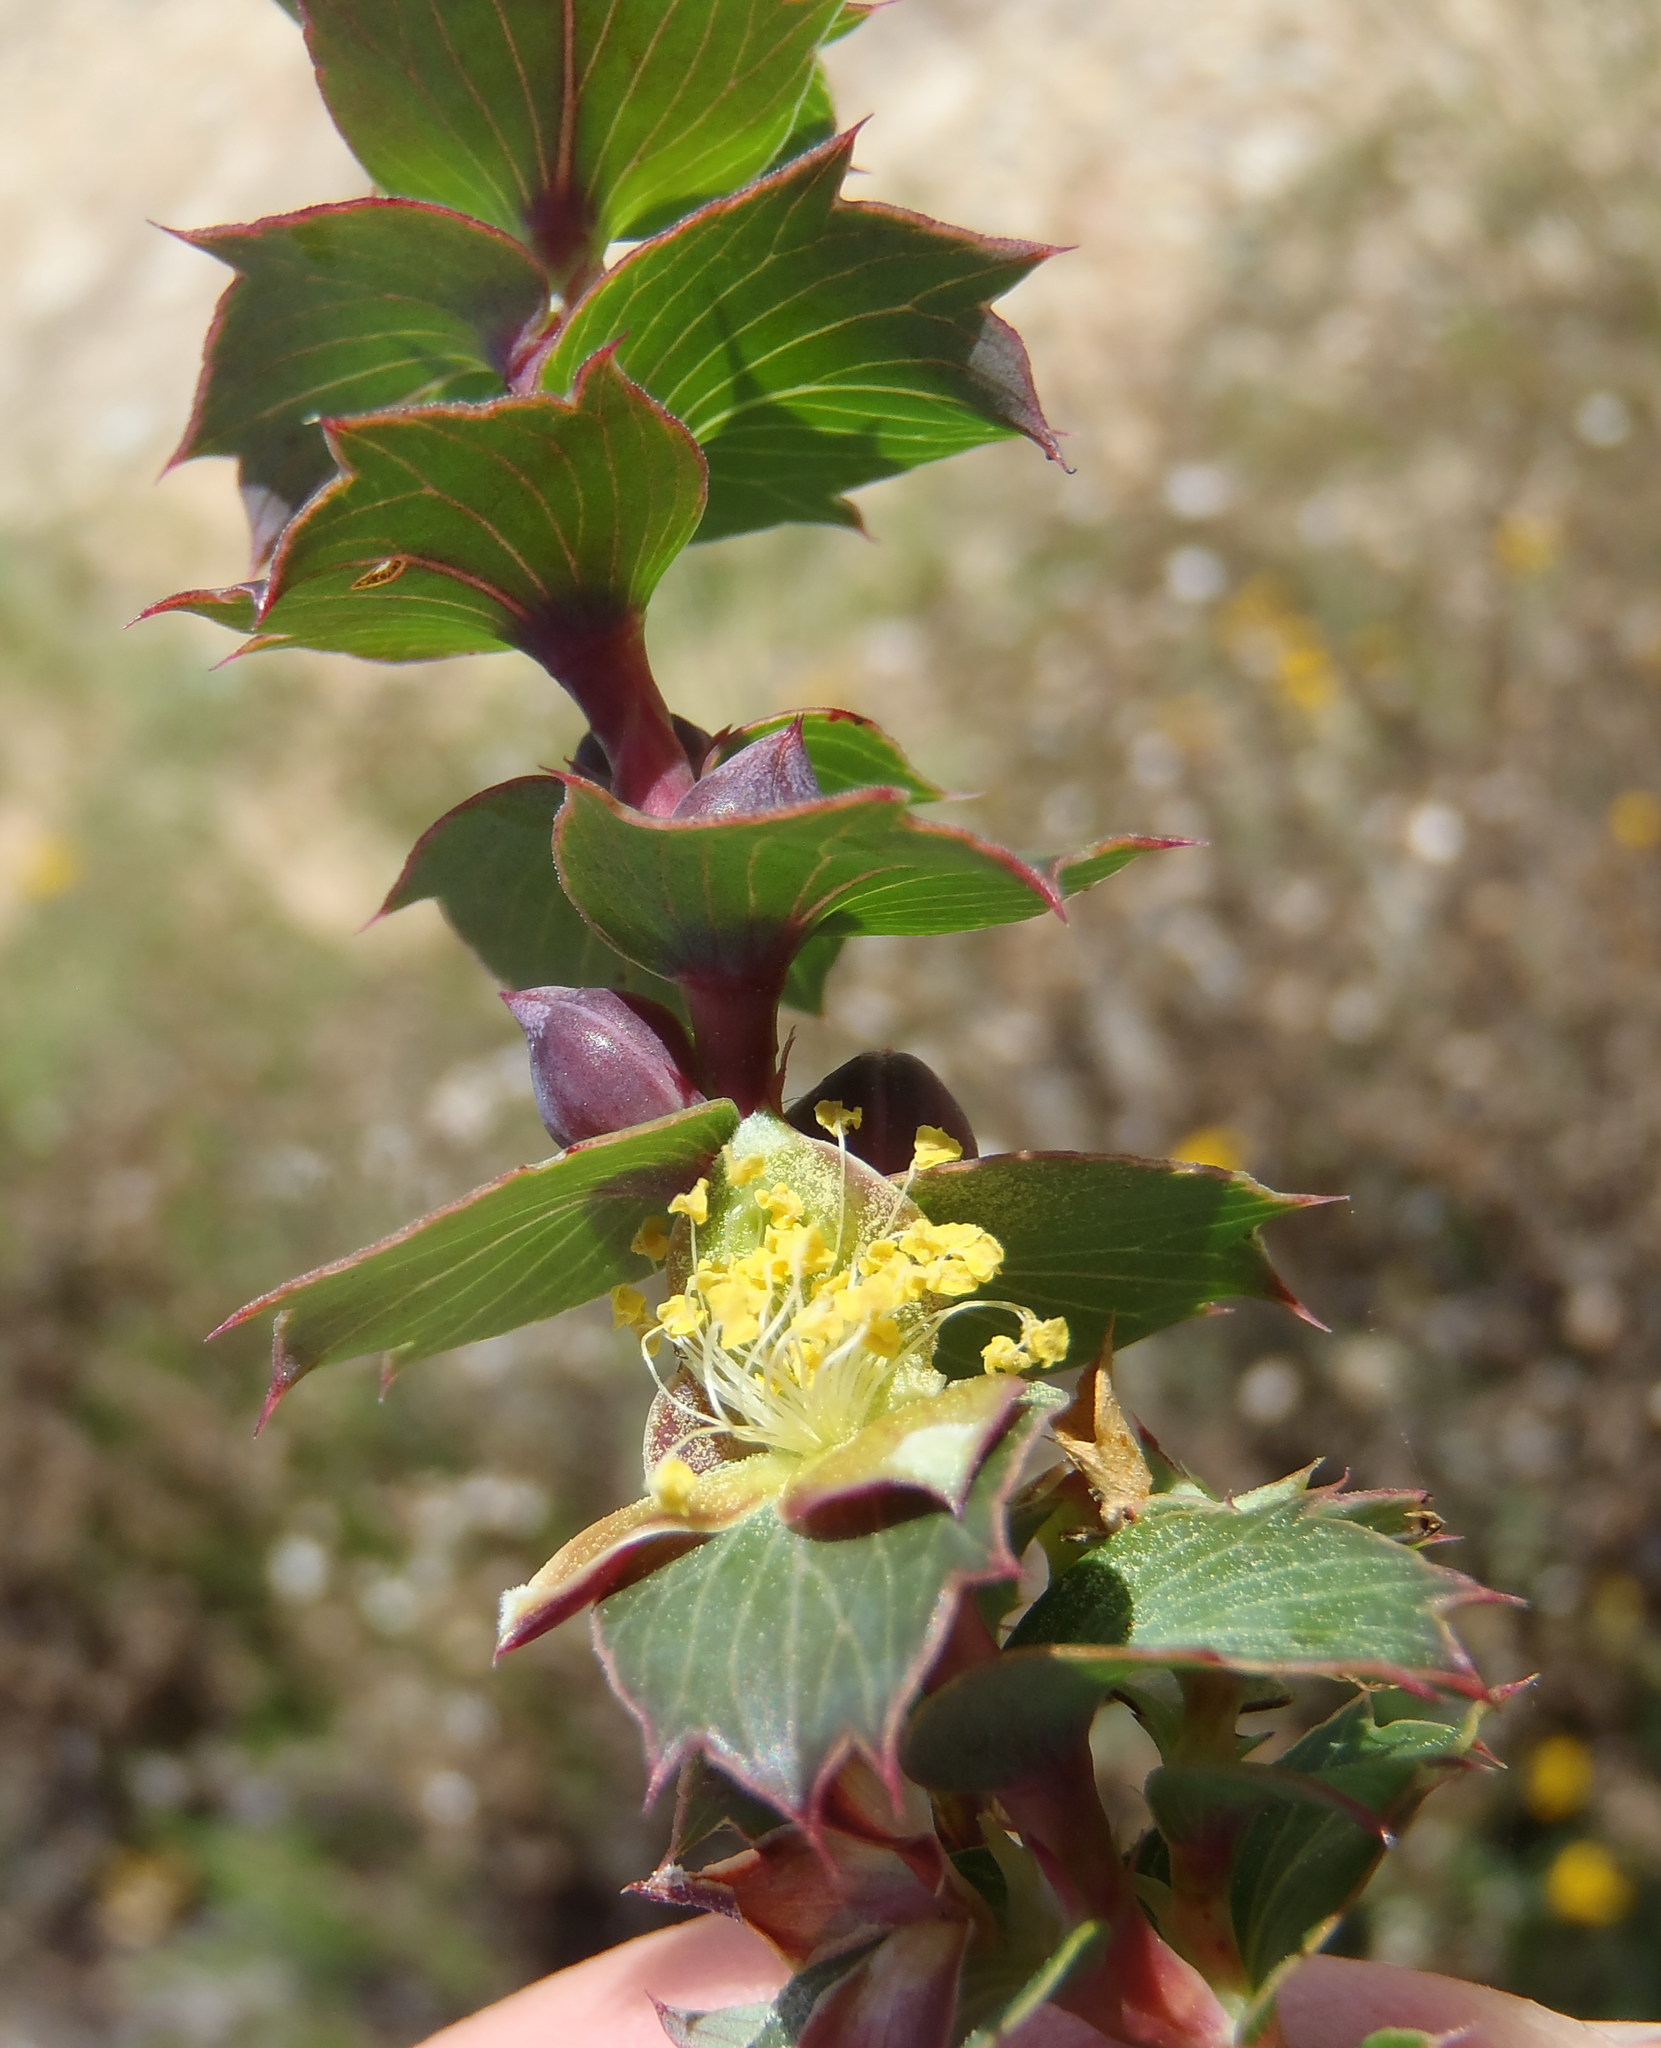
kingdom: Plantae
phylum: Tracheophyta
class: Magnoliopsida
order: Rosales
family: Rosaceae
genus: Cliffortia
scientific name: Cliffortia ilicifolia
